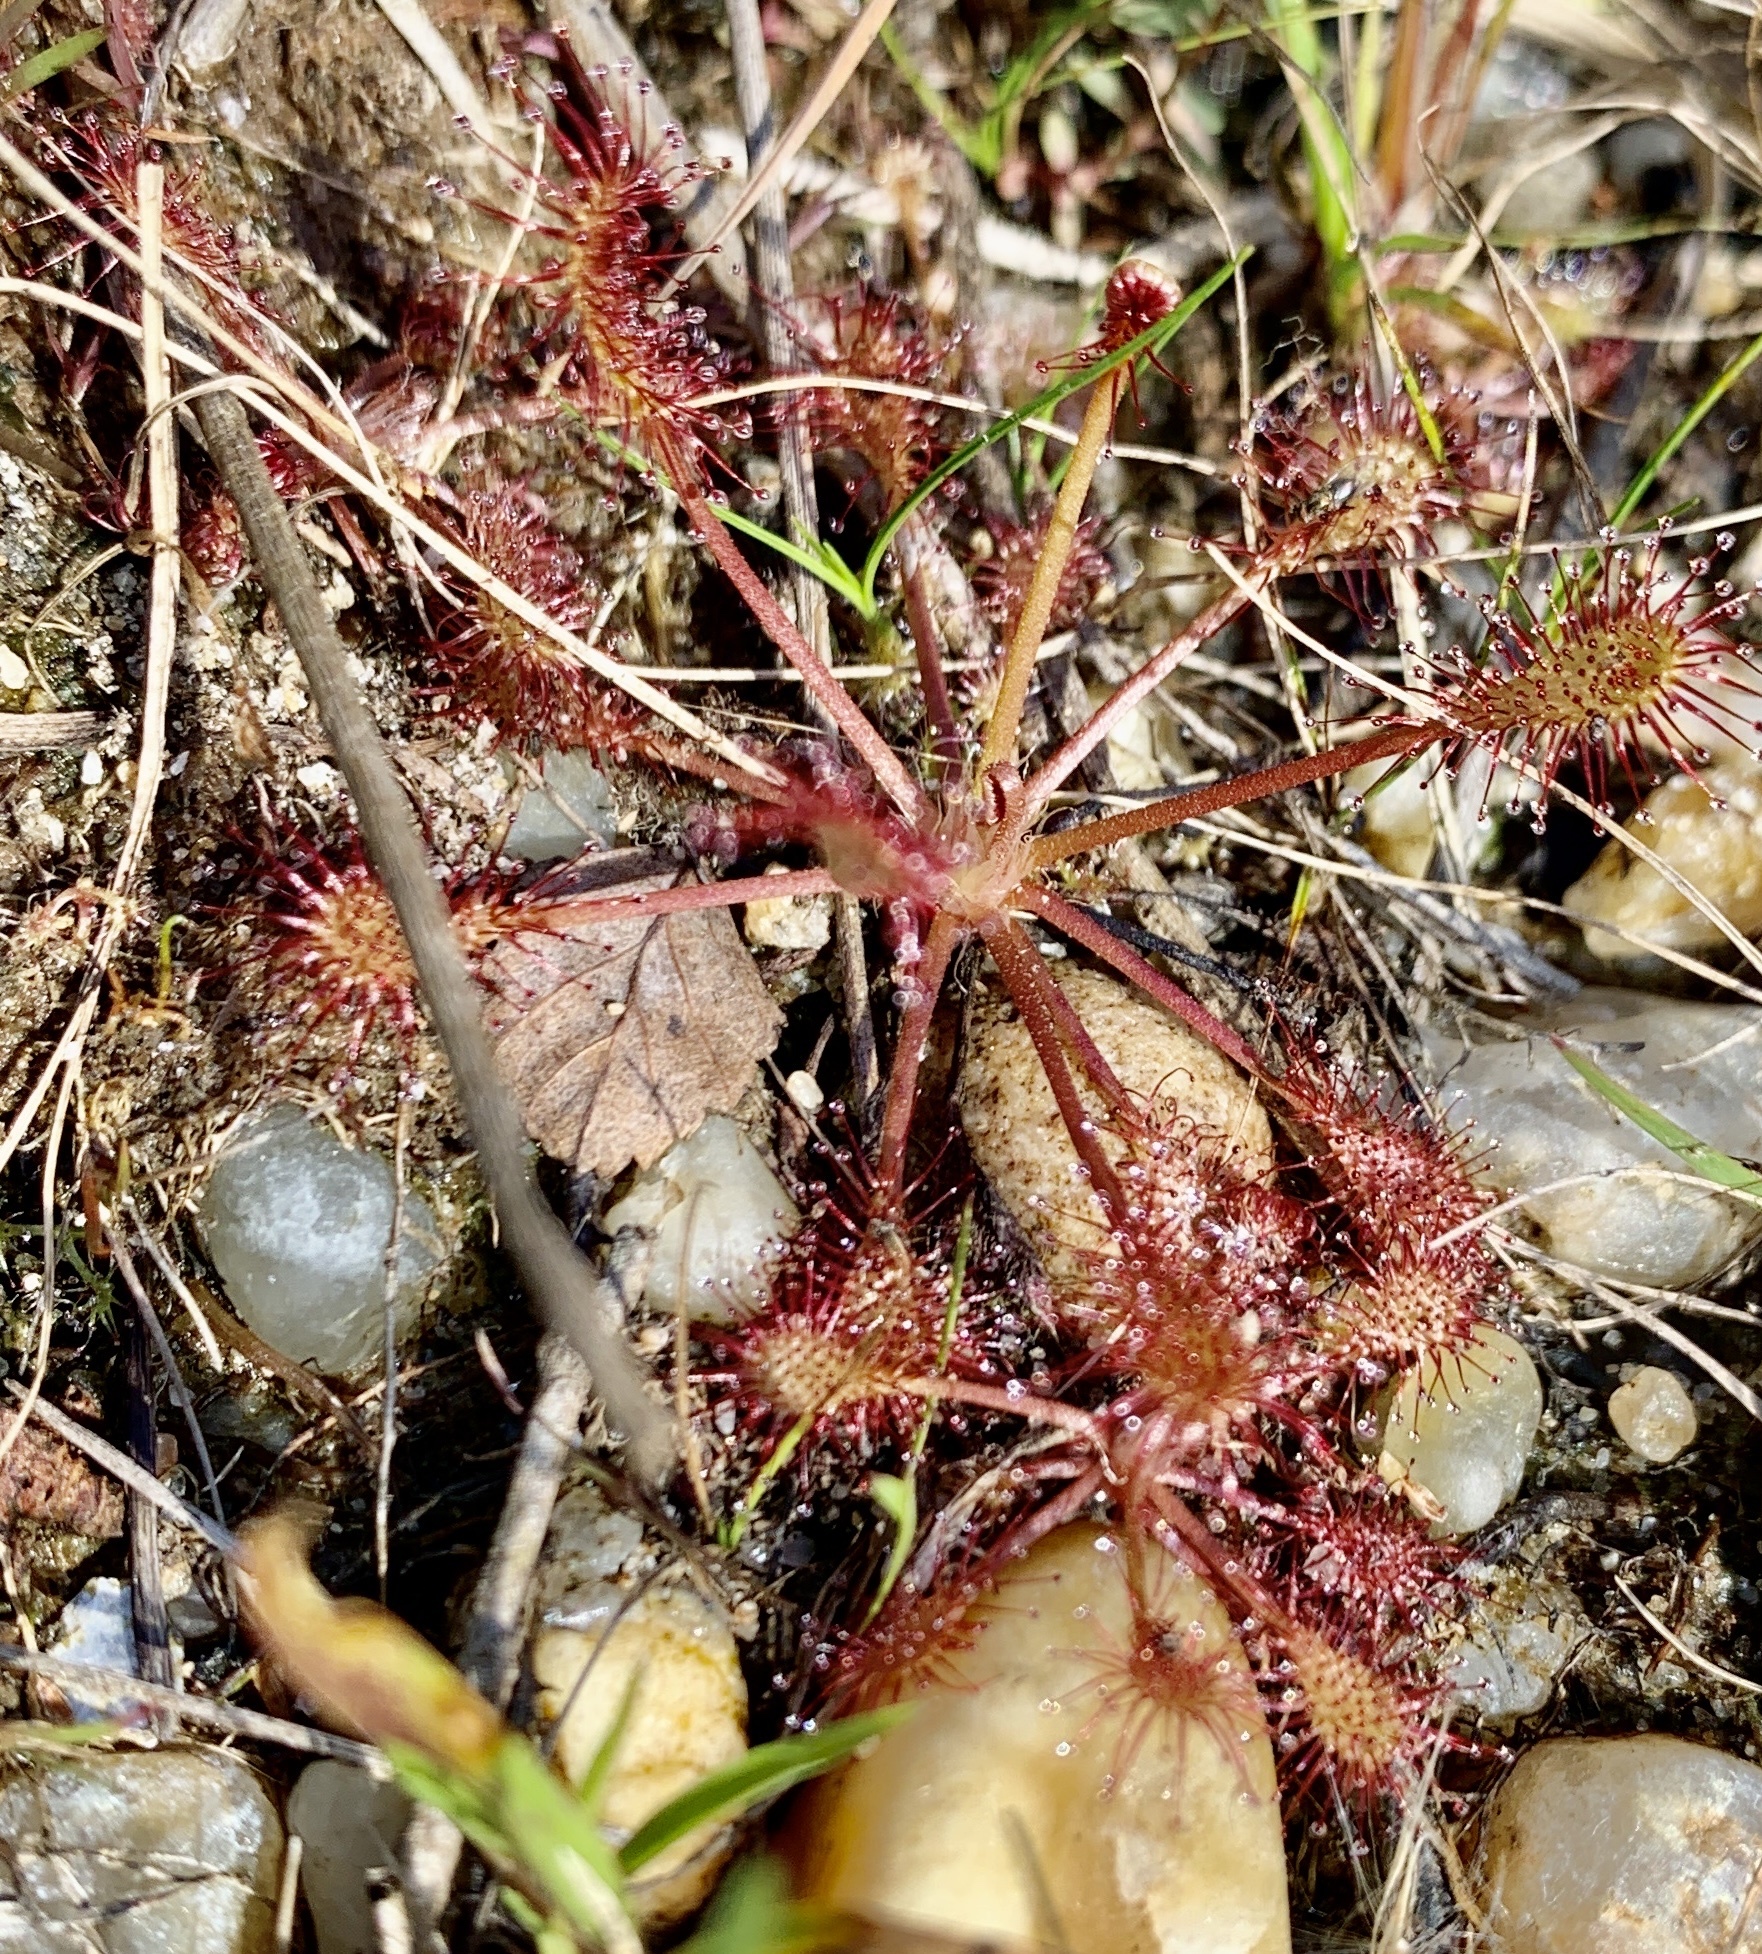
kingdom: Plantae
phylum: Tracheophyta
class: Magnoliopsida
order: Caryophyllales
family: Droseraceae
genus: Drosera
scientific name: Drosera intermedia
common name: Oblong-leaved sundew
